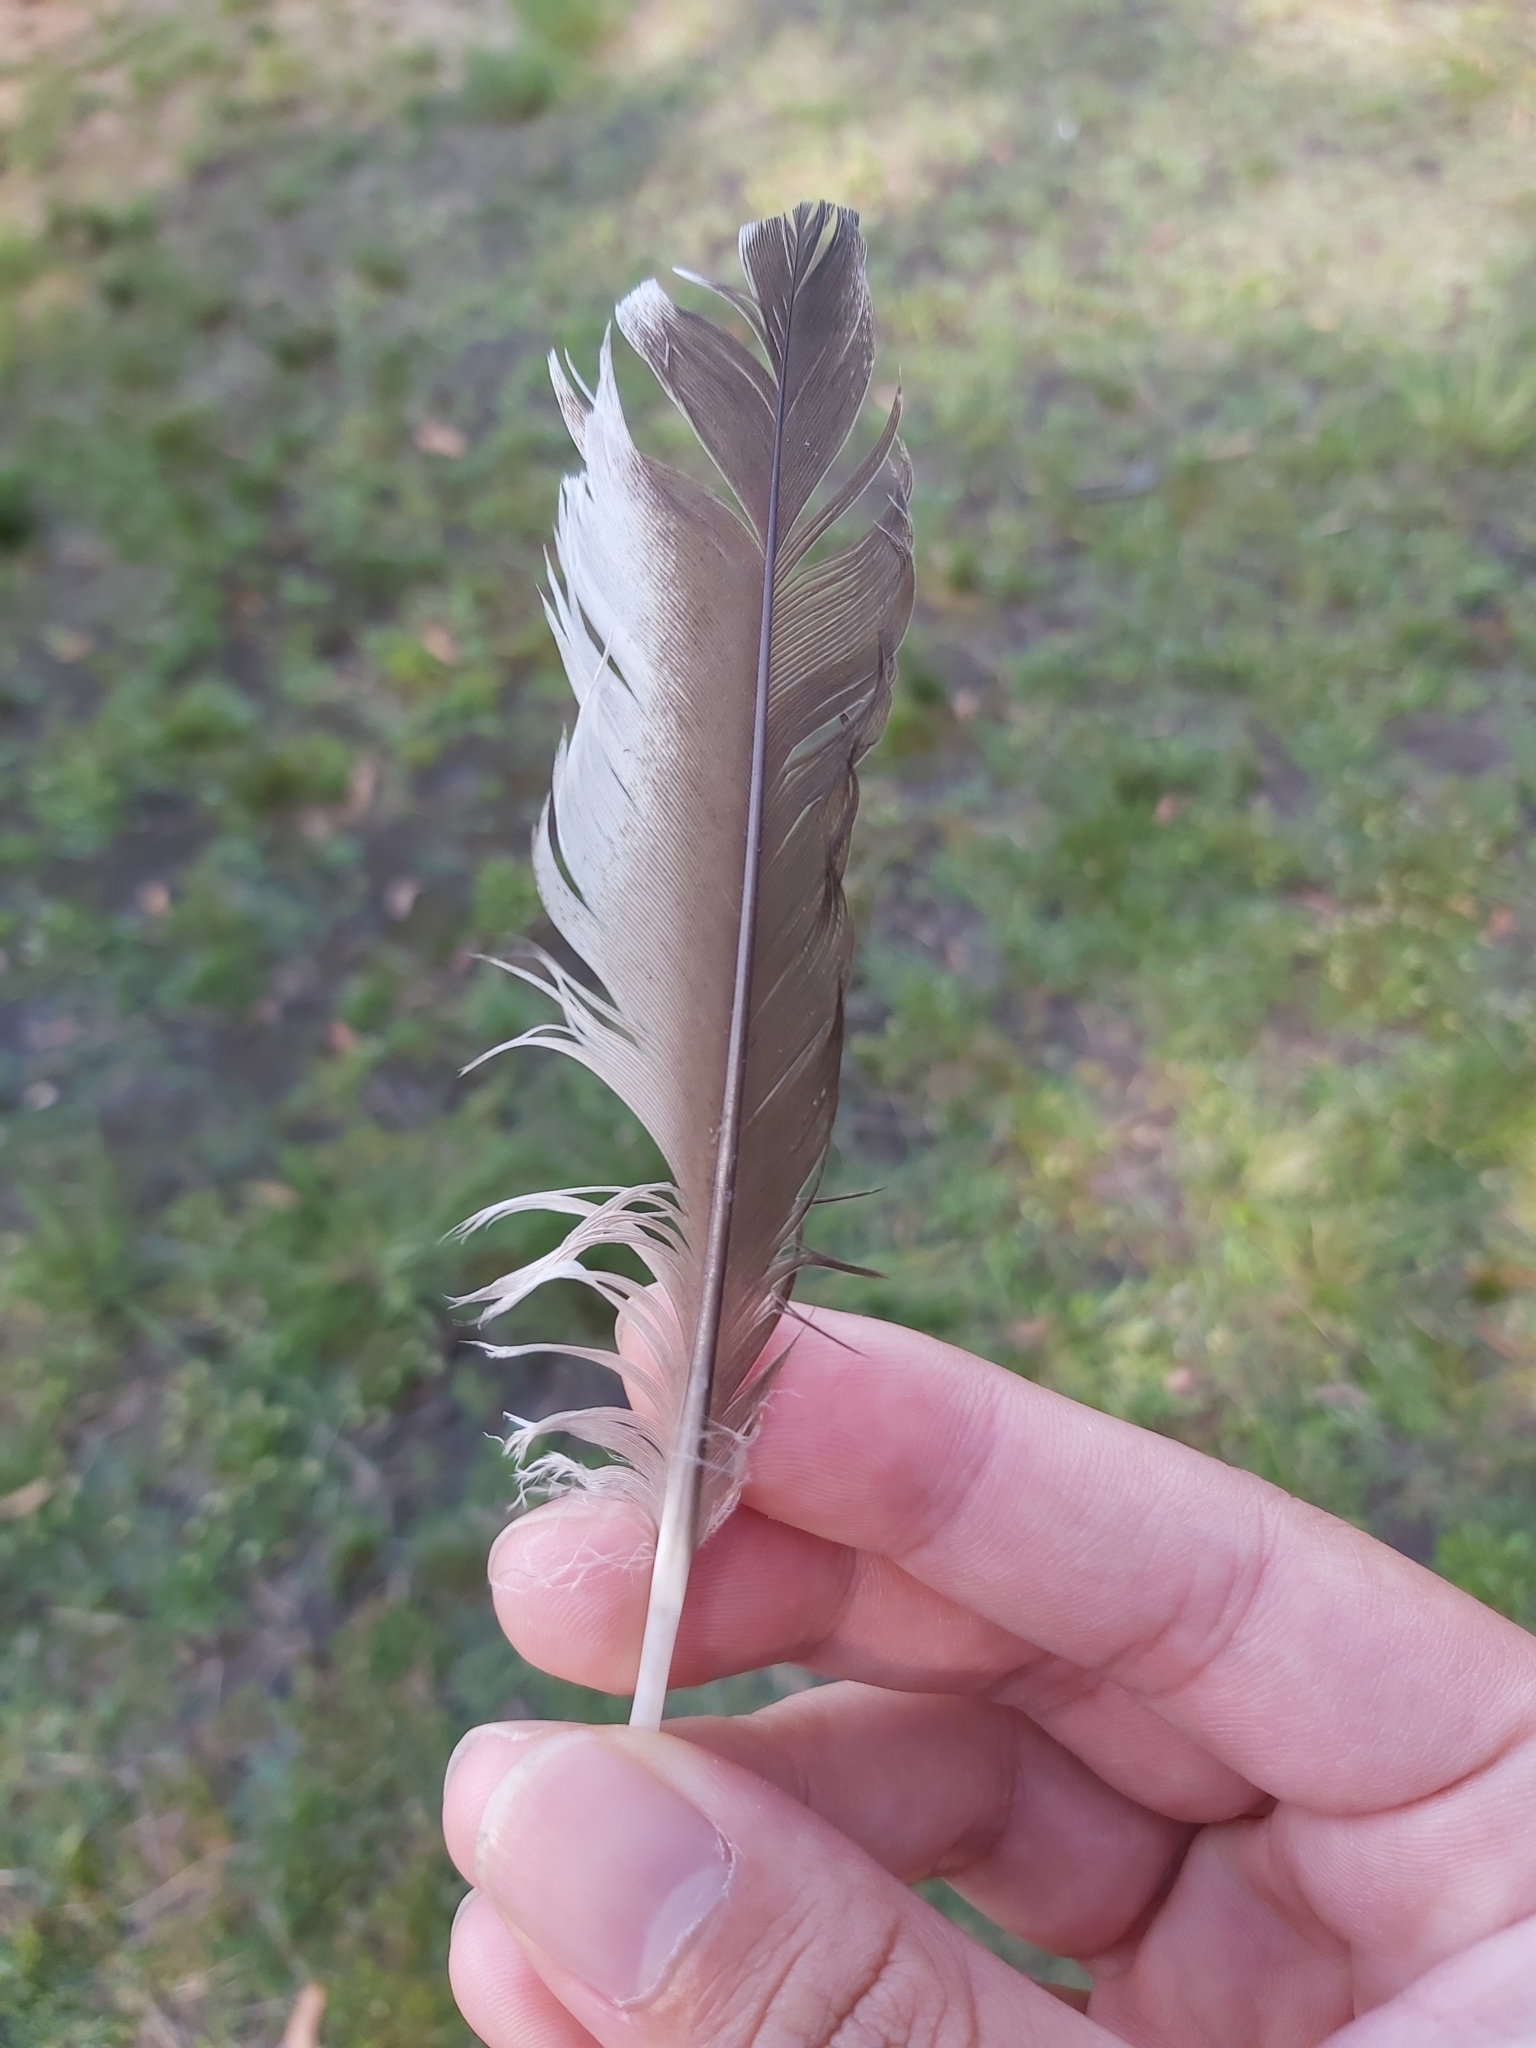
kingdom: Animalia
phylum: Chordata
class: Aves
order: Anseriformes
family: Anatidae
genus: Chenonetta
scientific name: Chenonetta jubata
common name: Maned duck
